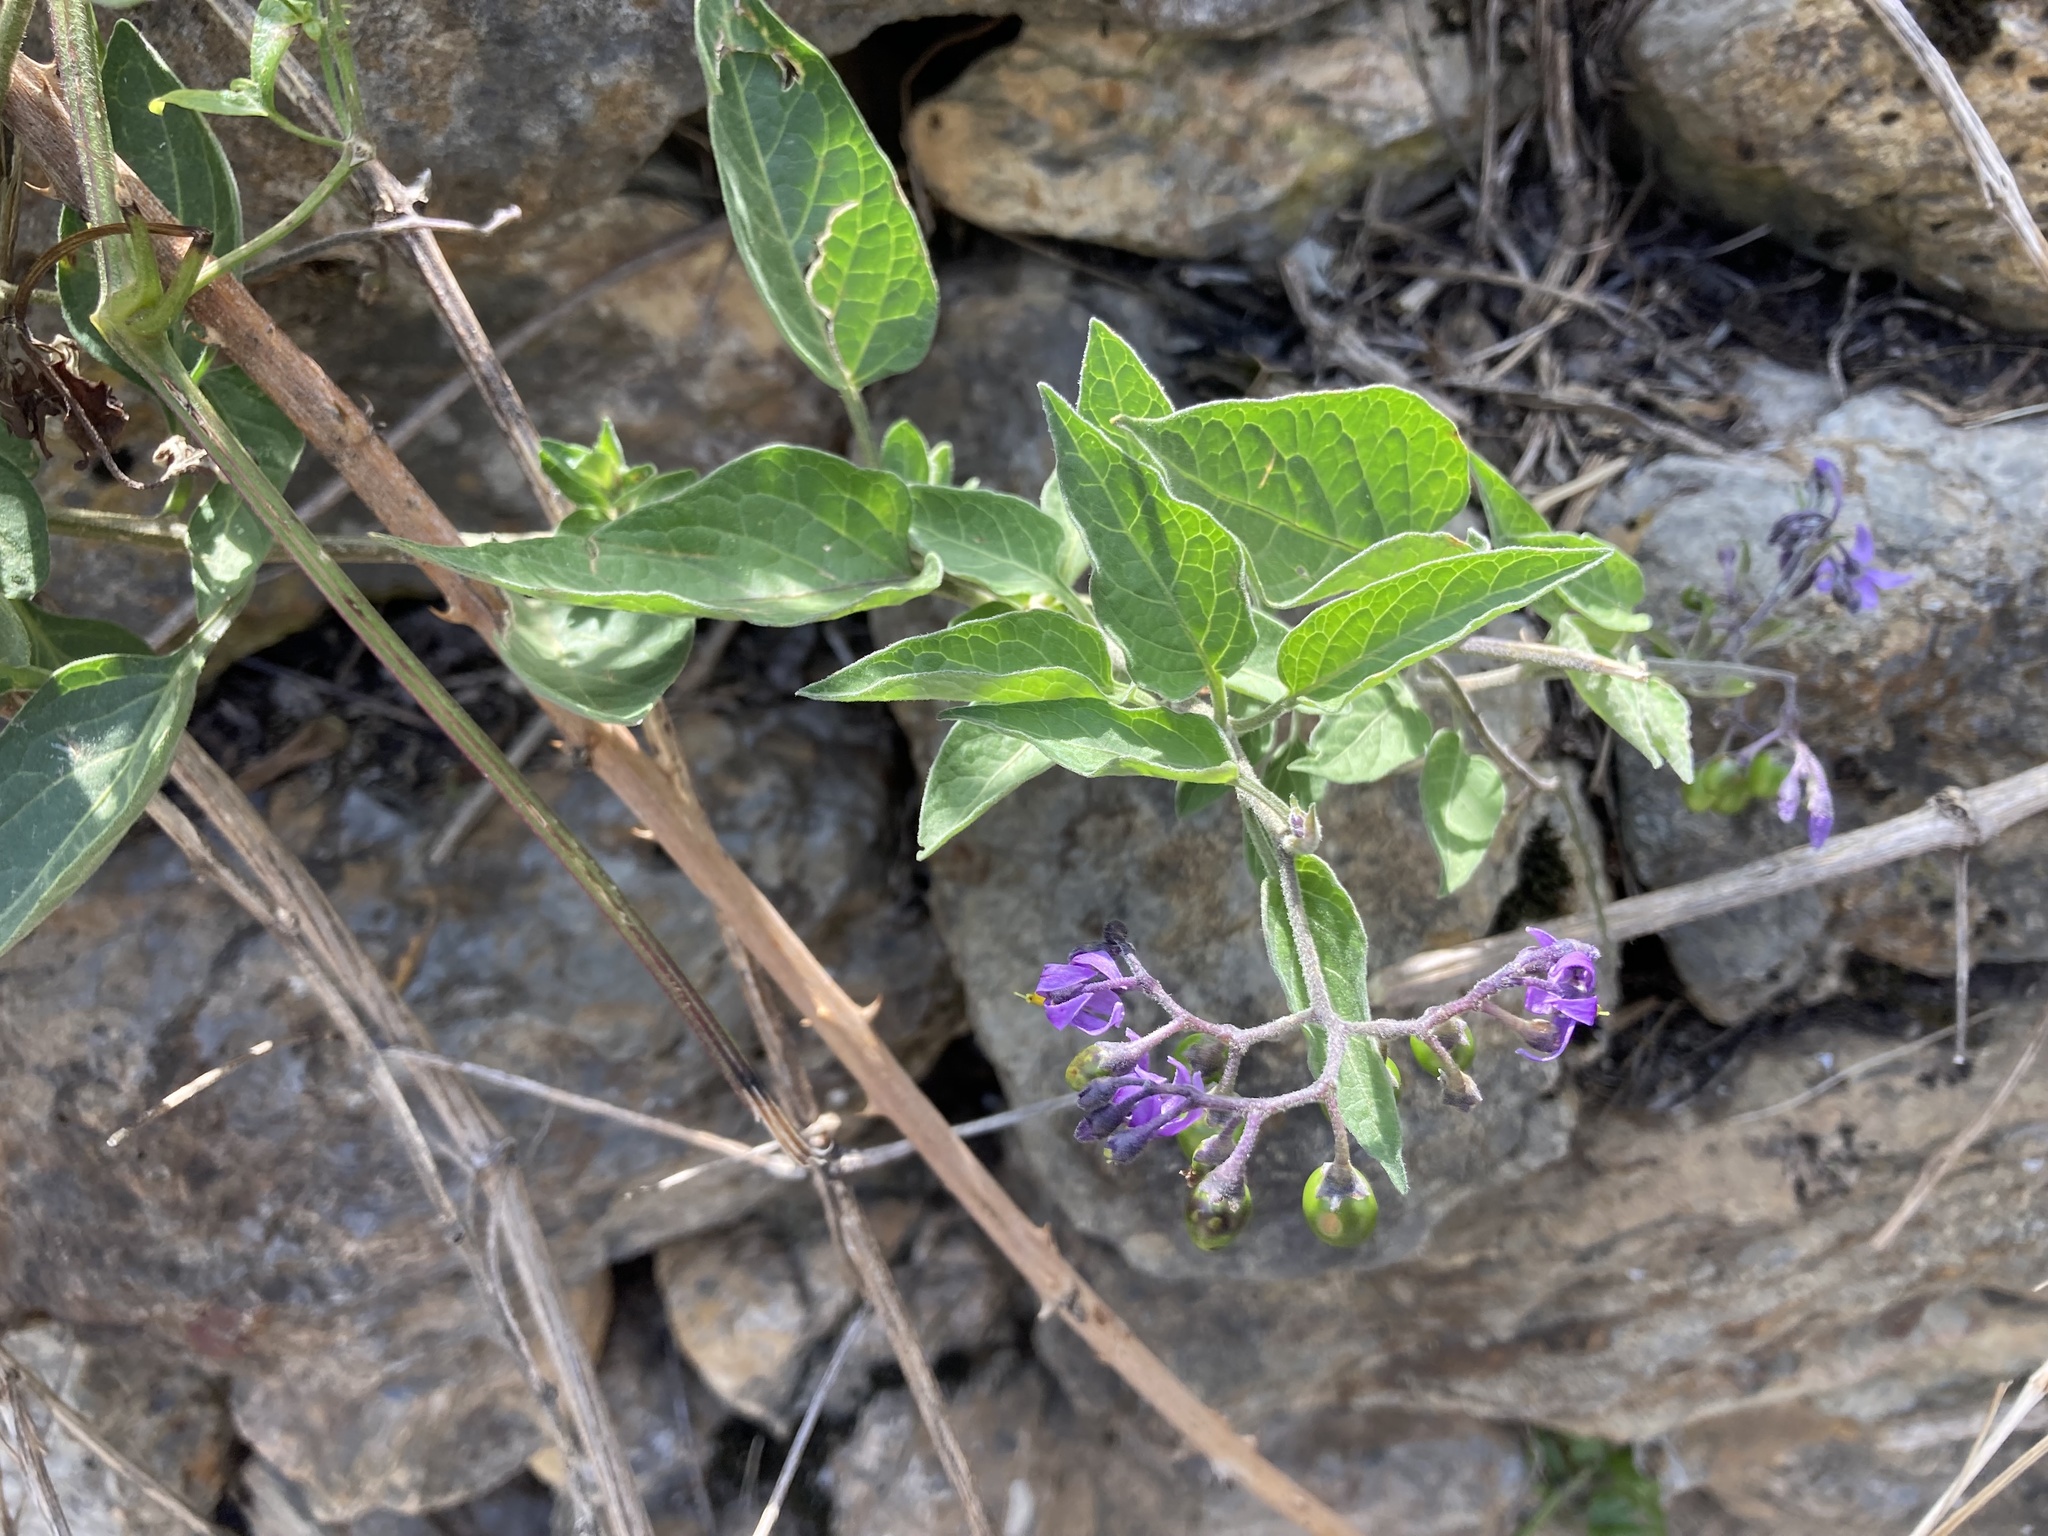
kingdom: Plantae
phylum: Tracheophyta
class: Magnoliopsida
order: Solanales
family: Solanaceae
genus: Solanum
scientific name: Solanum dulcamara
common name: Climbing nightshade
